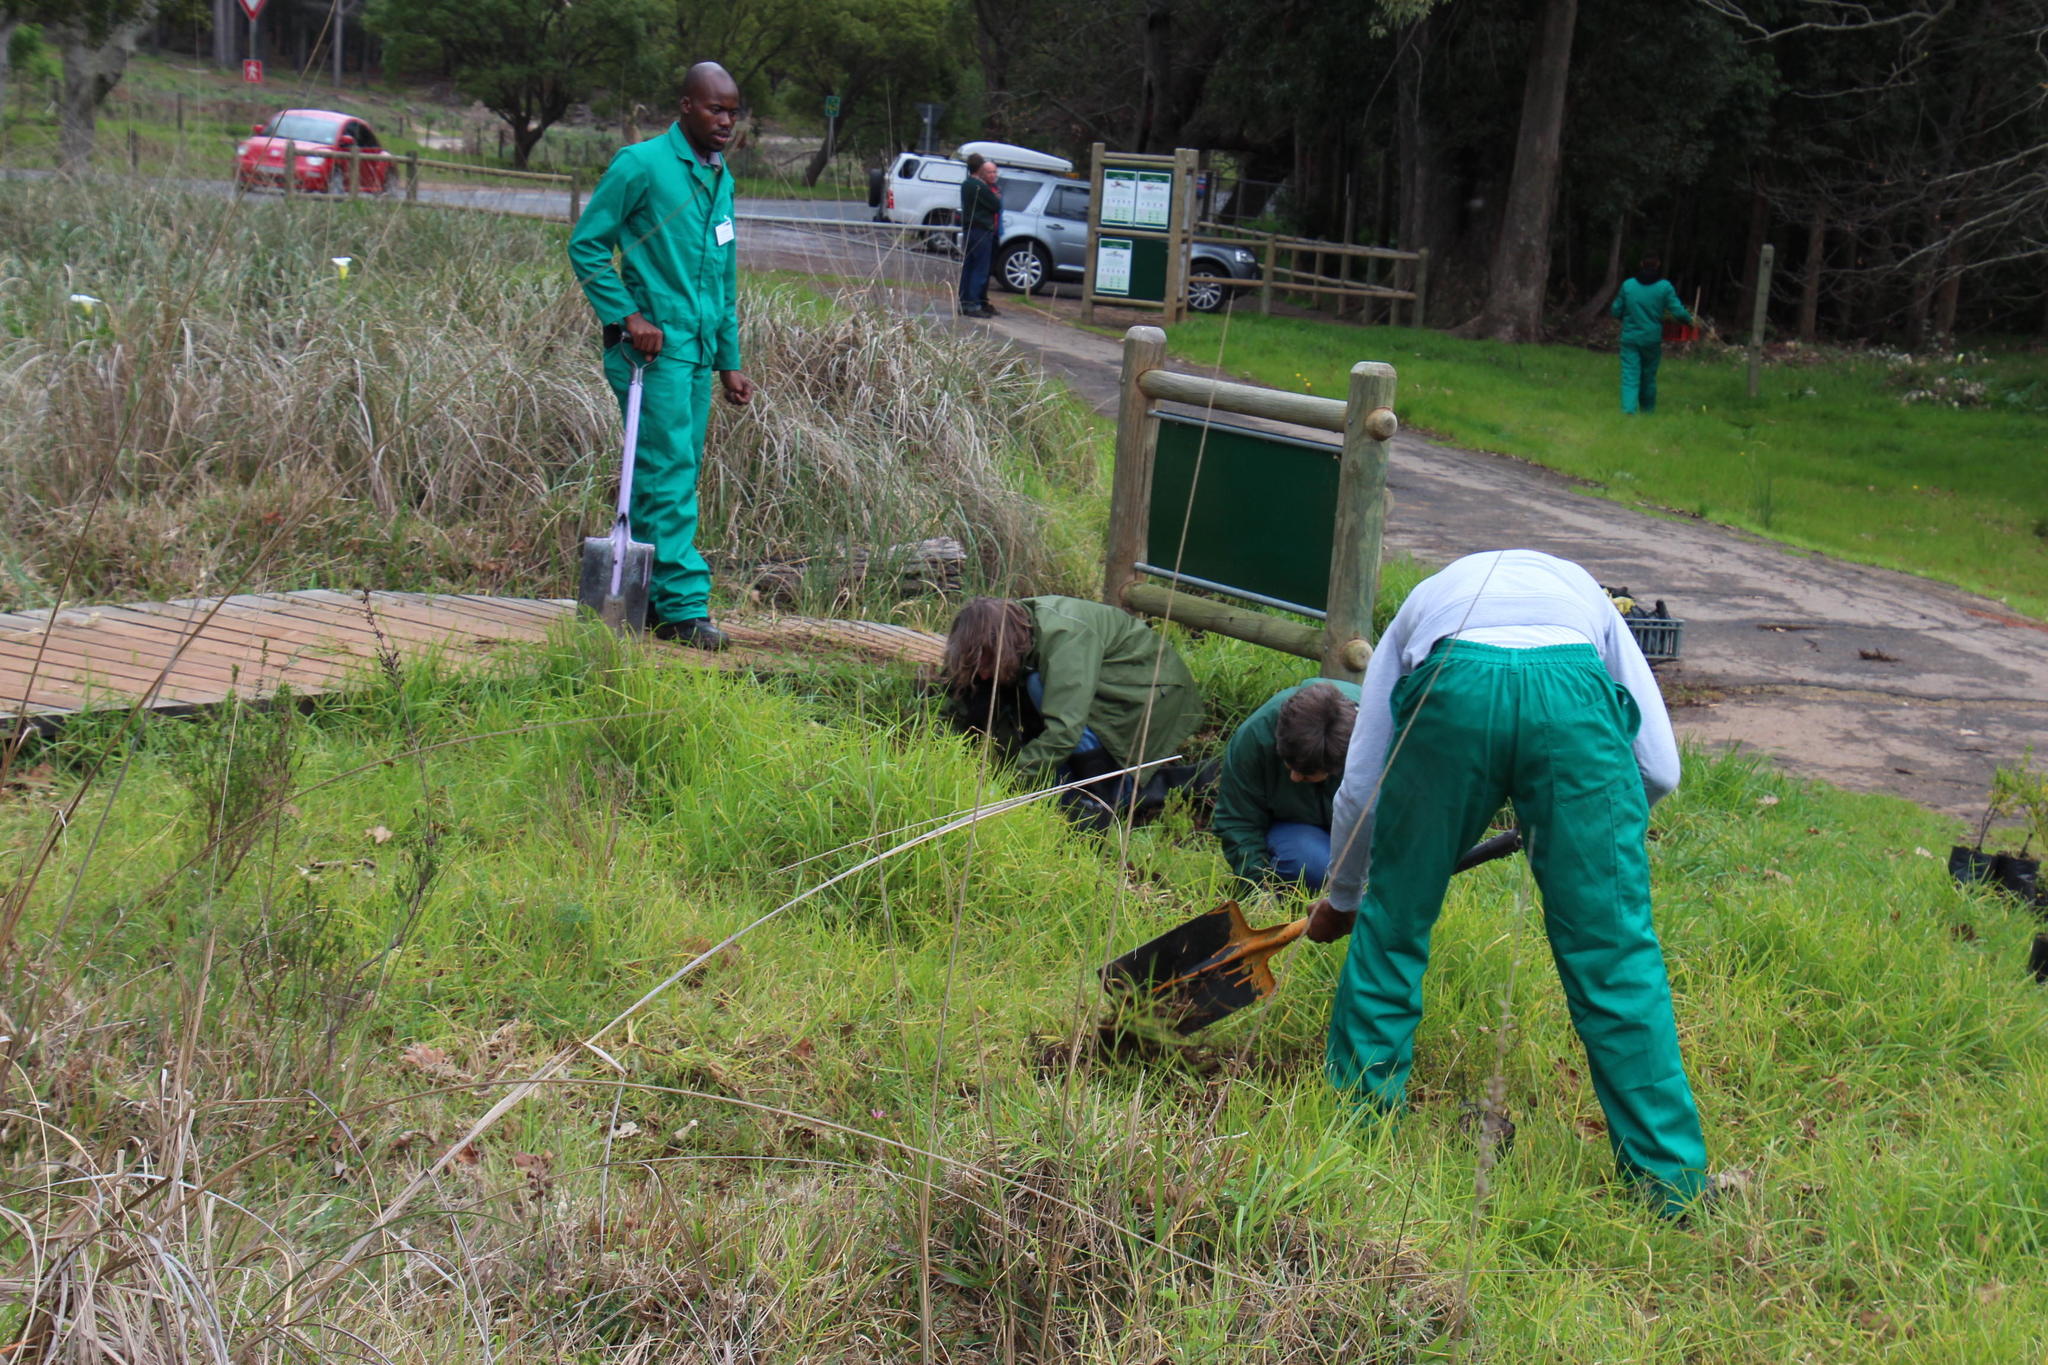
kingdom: Plantae
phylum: Tracheophyta
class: Liliopsida
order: Poales
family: Poaceae
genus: Cenchrus
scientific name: Cenchrus clandestinus
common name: Kikuyugrass
